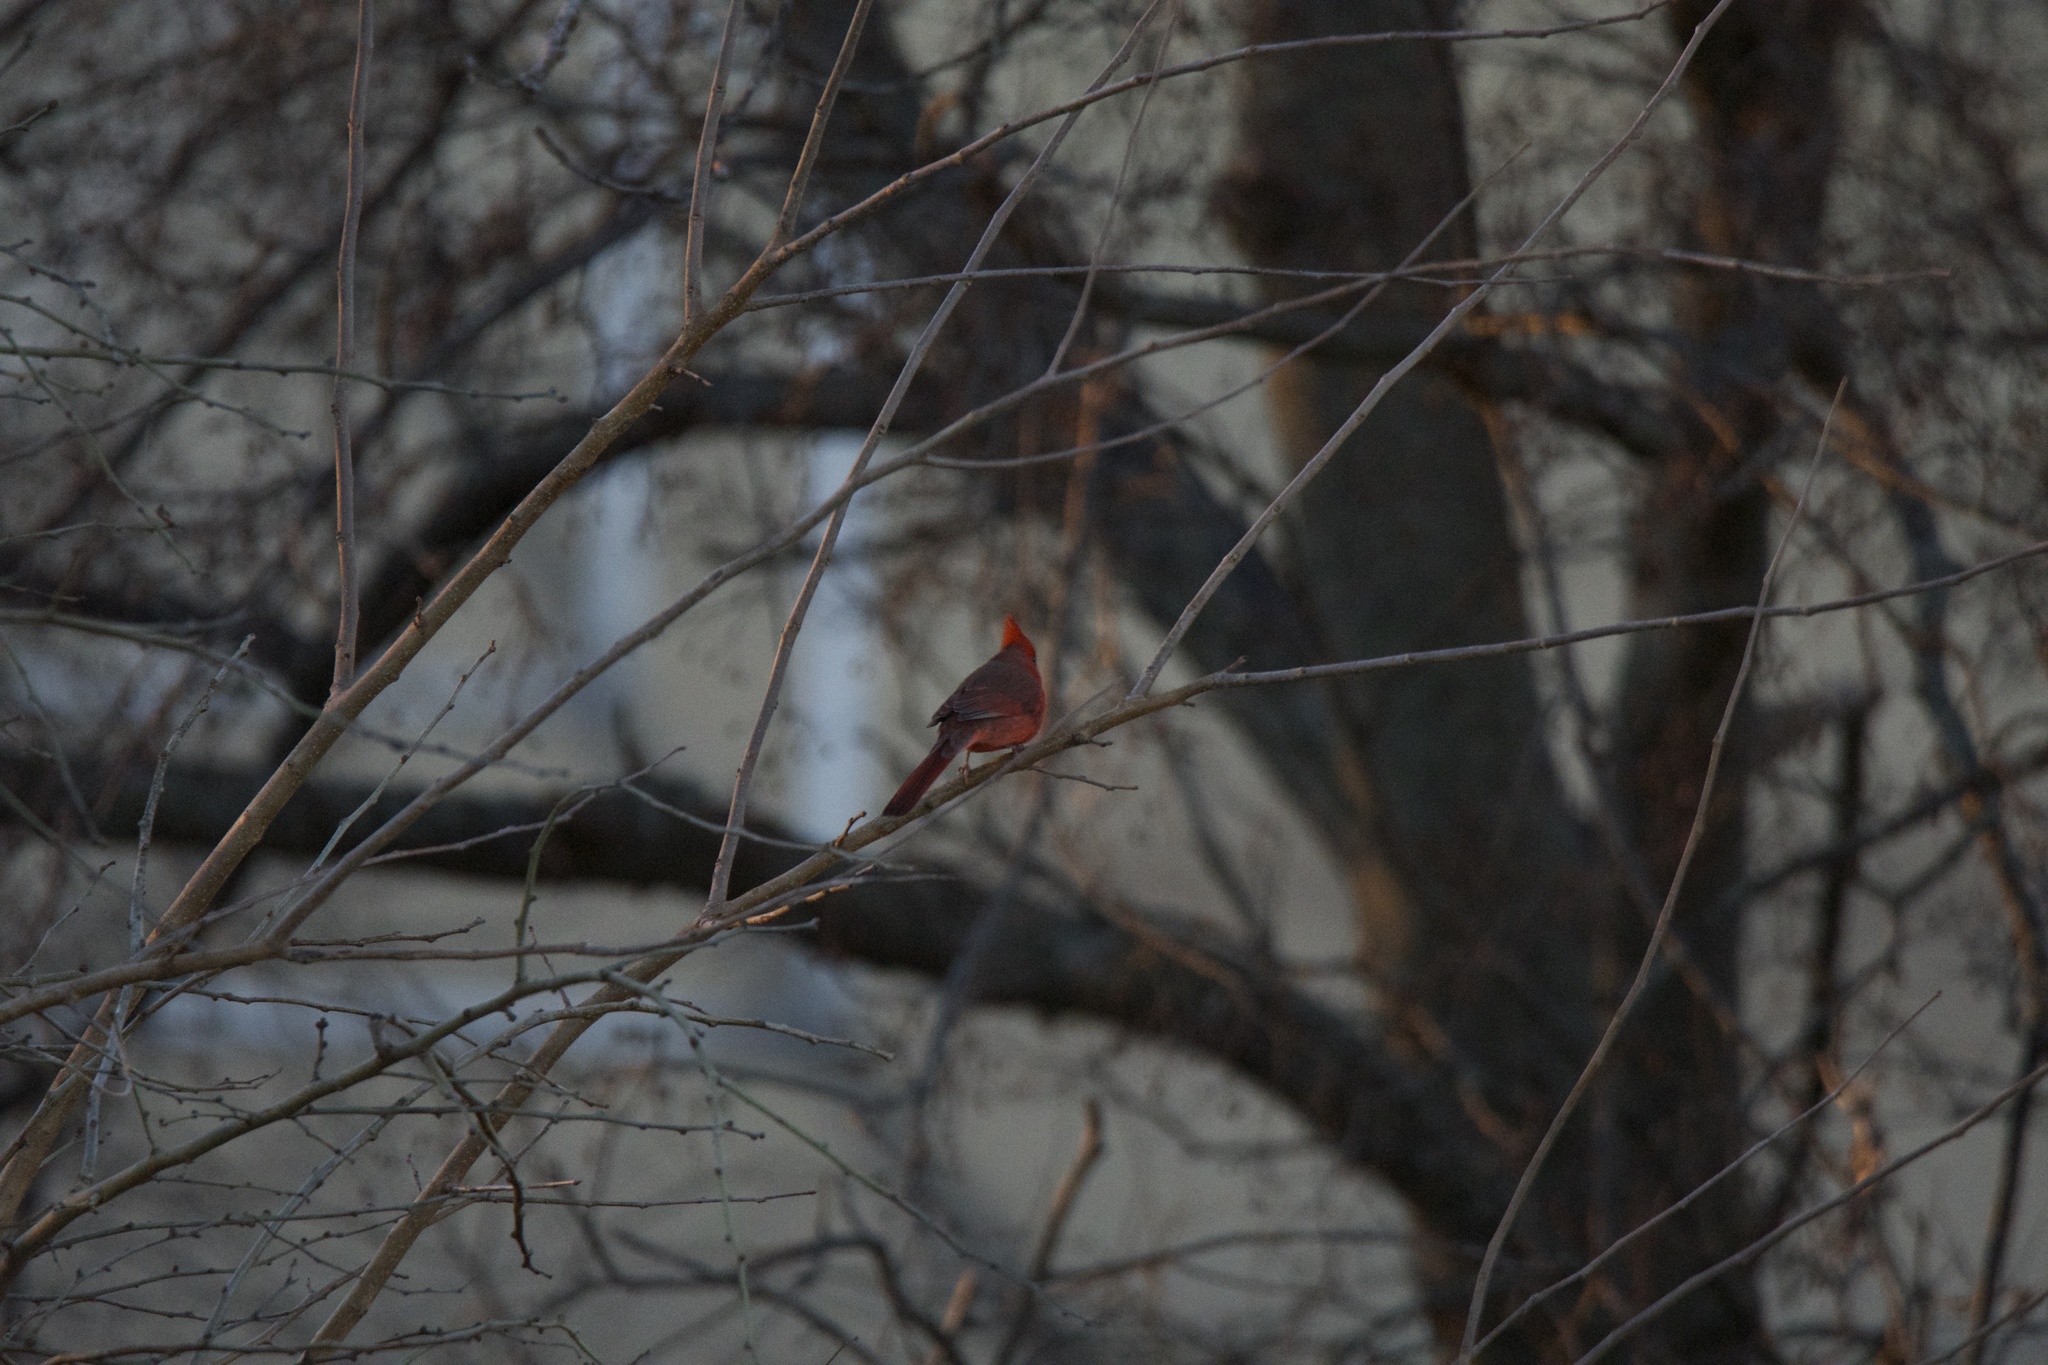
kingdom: Animalia
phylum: Chordata
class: Aves
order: Passeriformes
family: Cardinalidae
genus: Cardinalis
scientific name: Cardinalis cardinalis
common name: Northern cardinal
